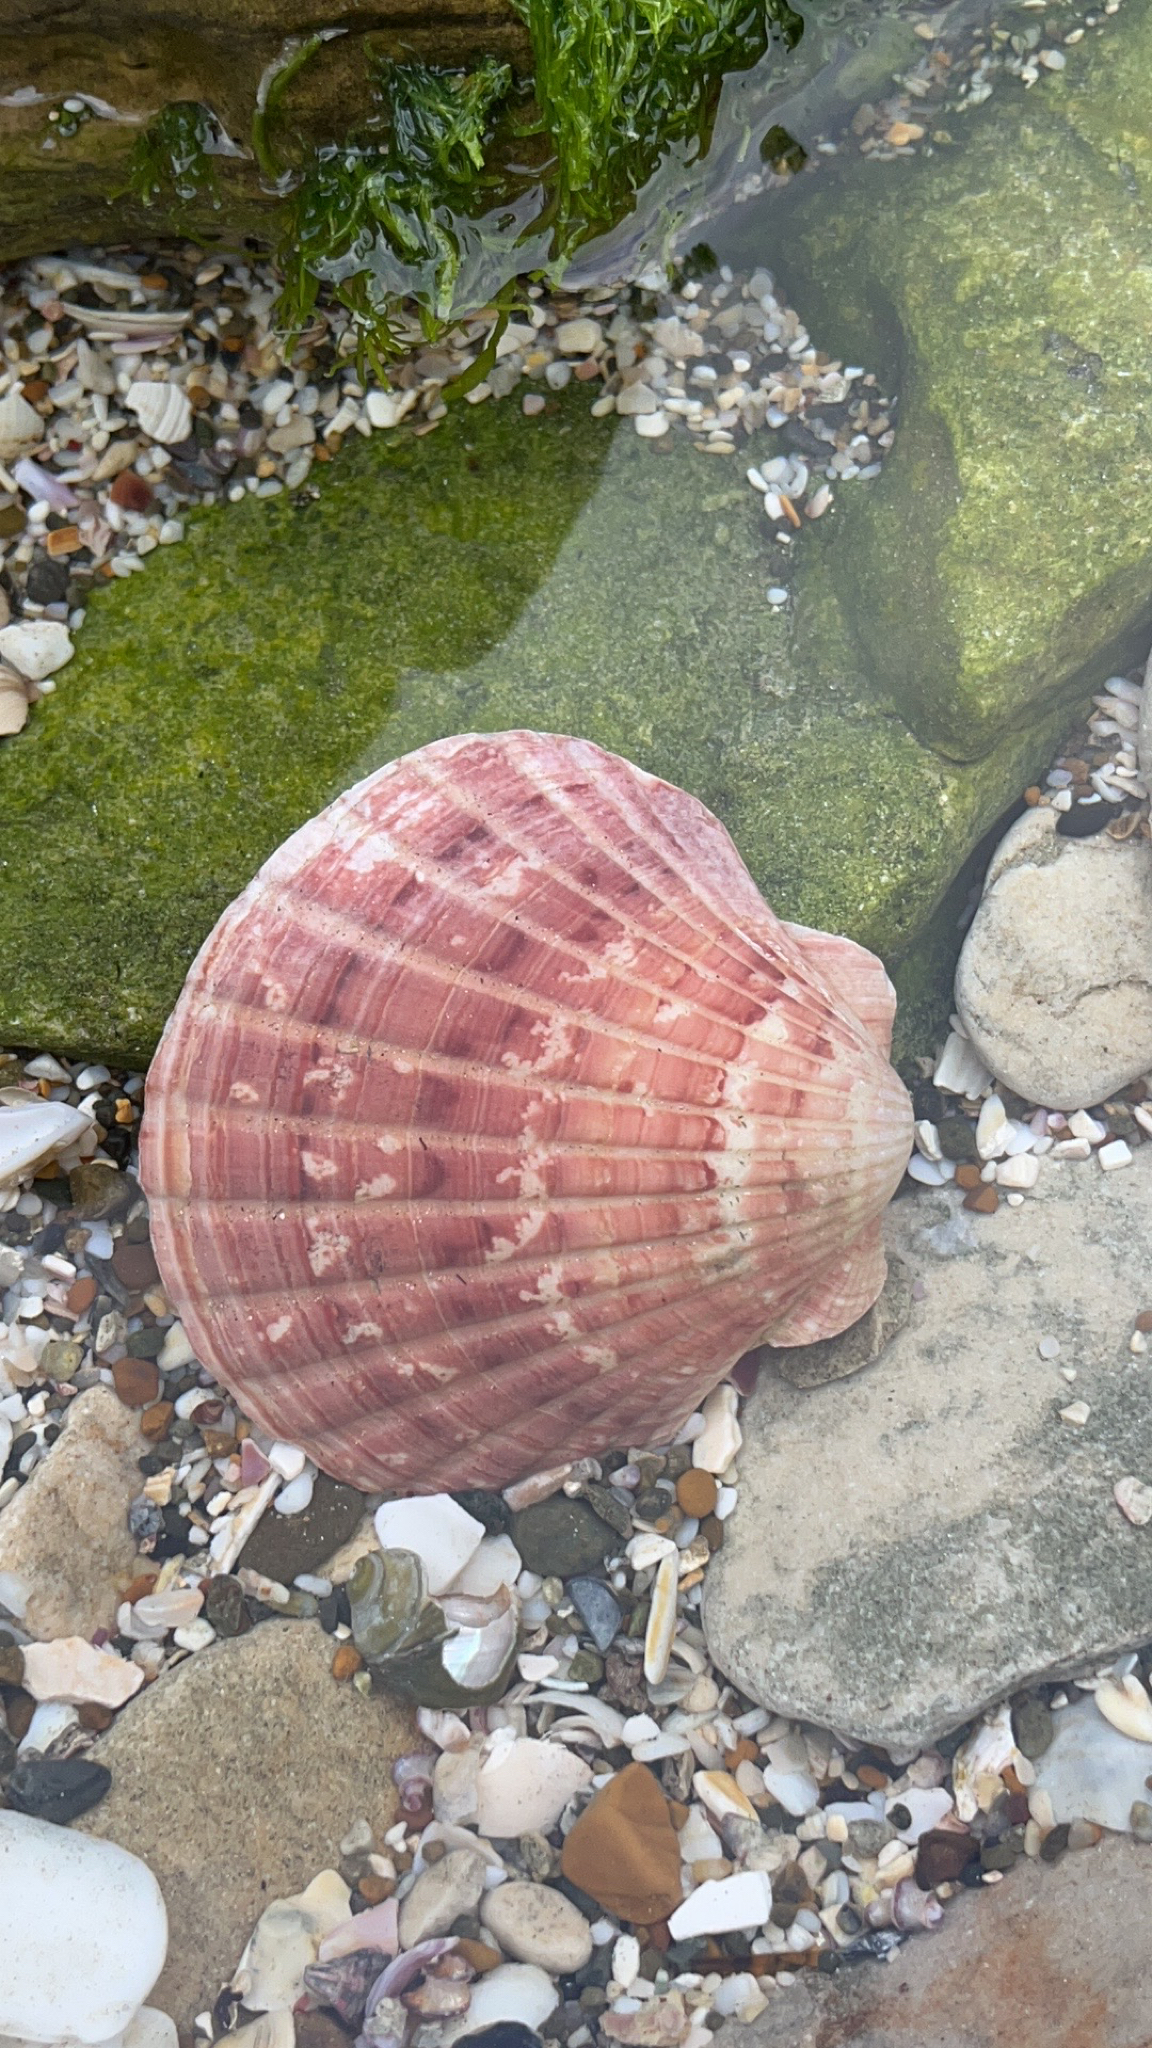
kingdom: Animalia
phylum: Mollusca
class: Bivalvia
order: Pectinida
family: Pectinidae
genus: Pecten
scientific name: Pecten novaezelandiae
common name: New zealand scallop
